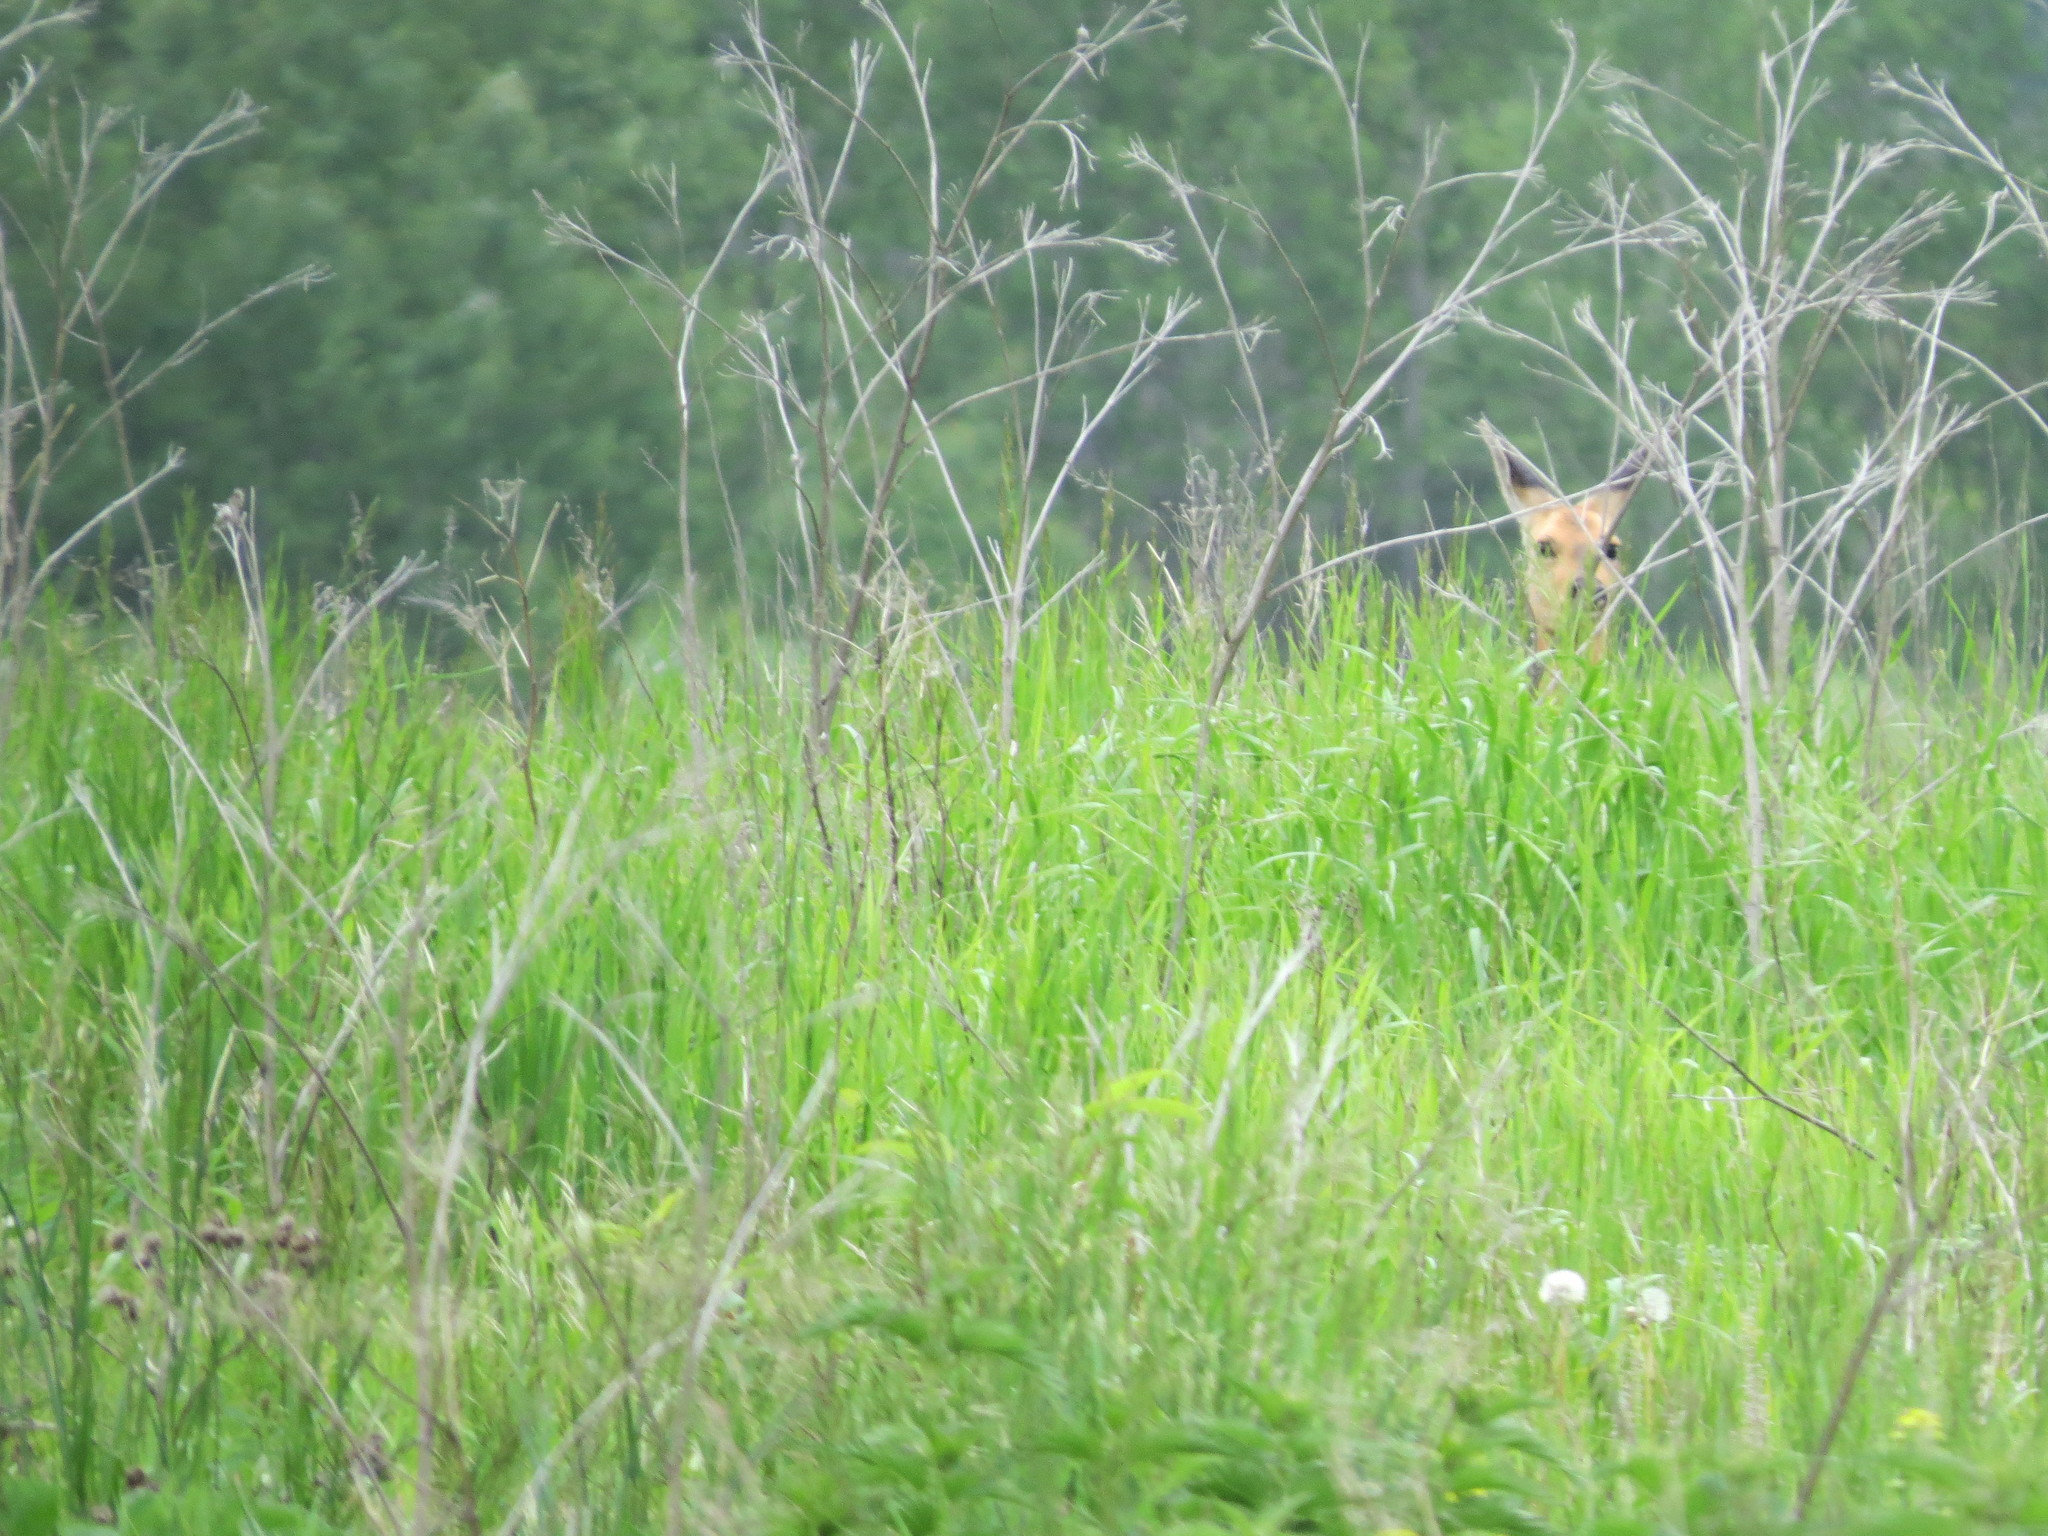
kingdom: Animalia
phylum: Chordata
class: Mammalia
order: Artiodactyla
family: Cervidae
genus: Capreolus
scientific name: Capreolus pygargus
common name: Siberian roe
